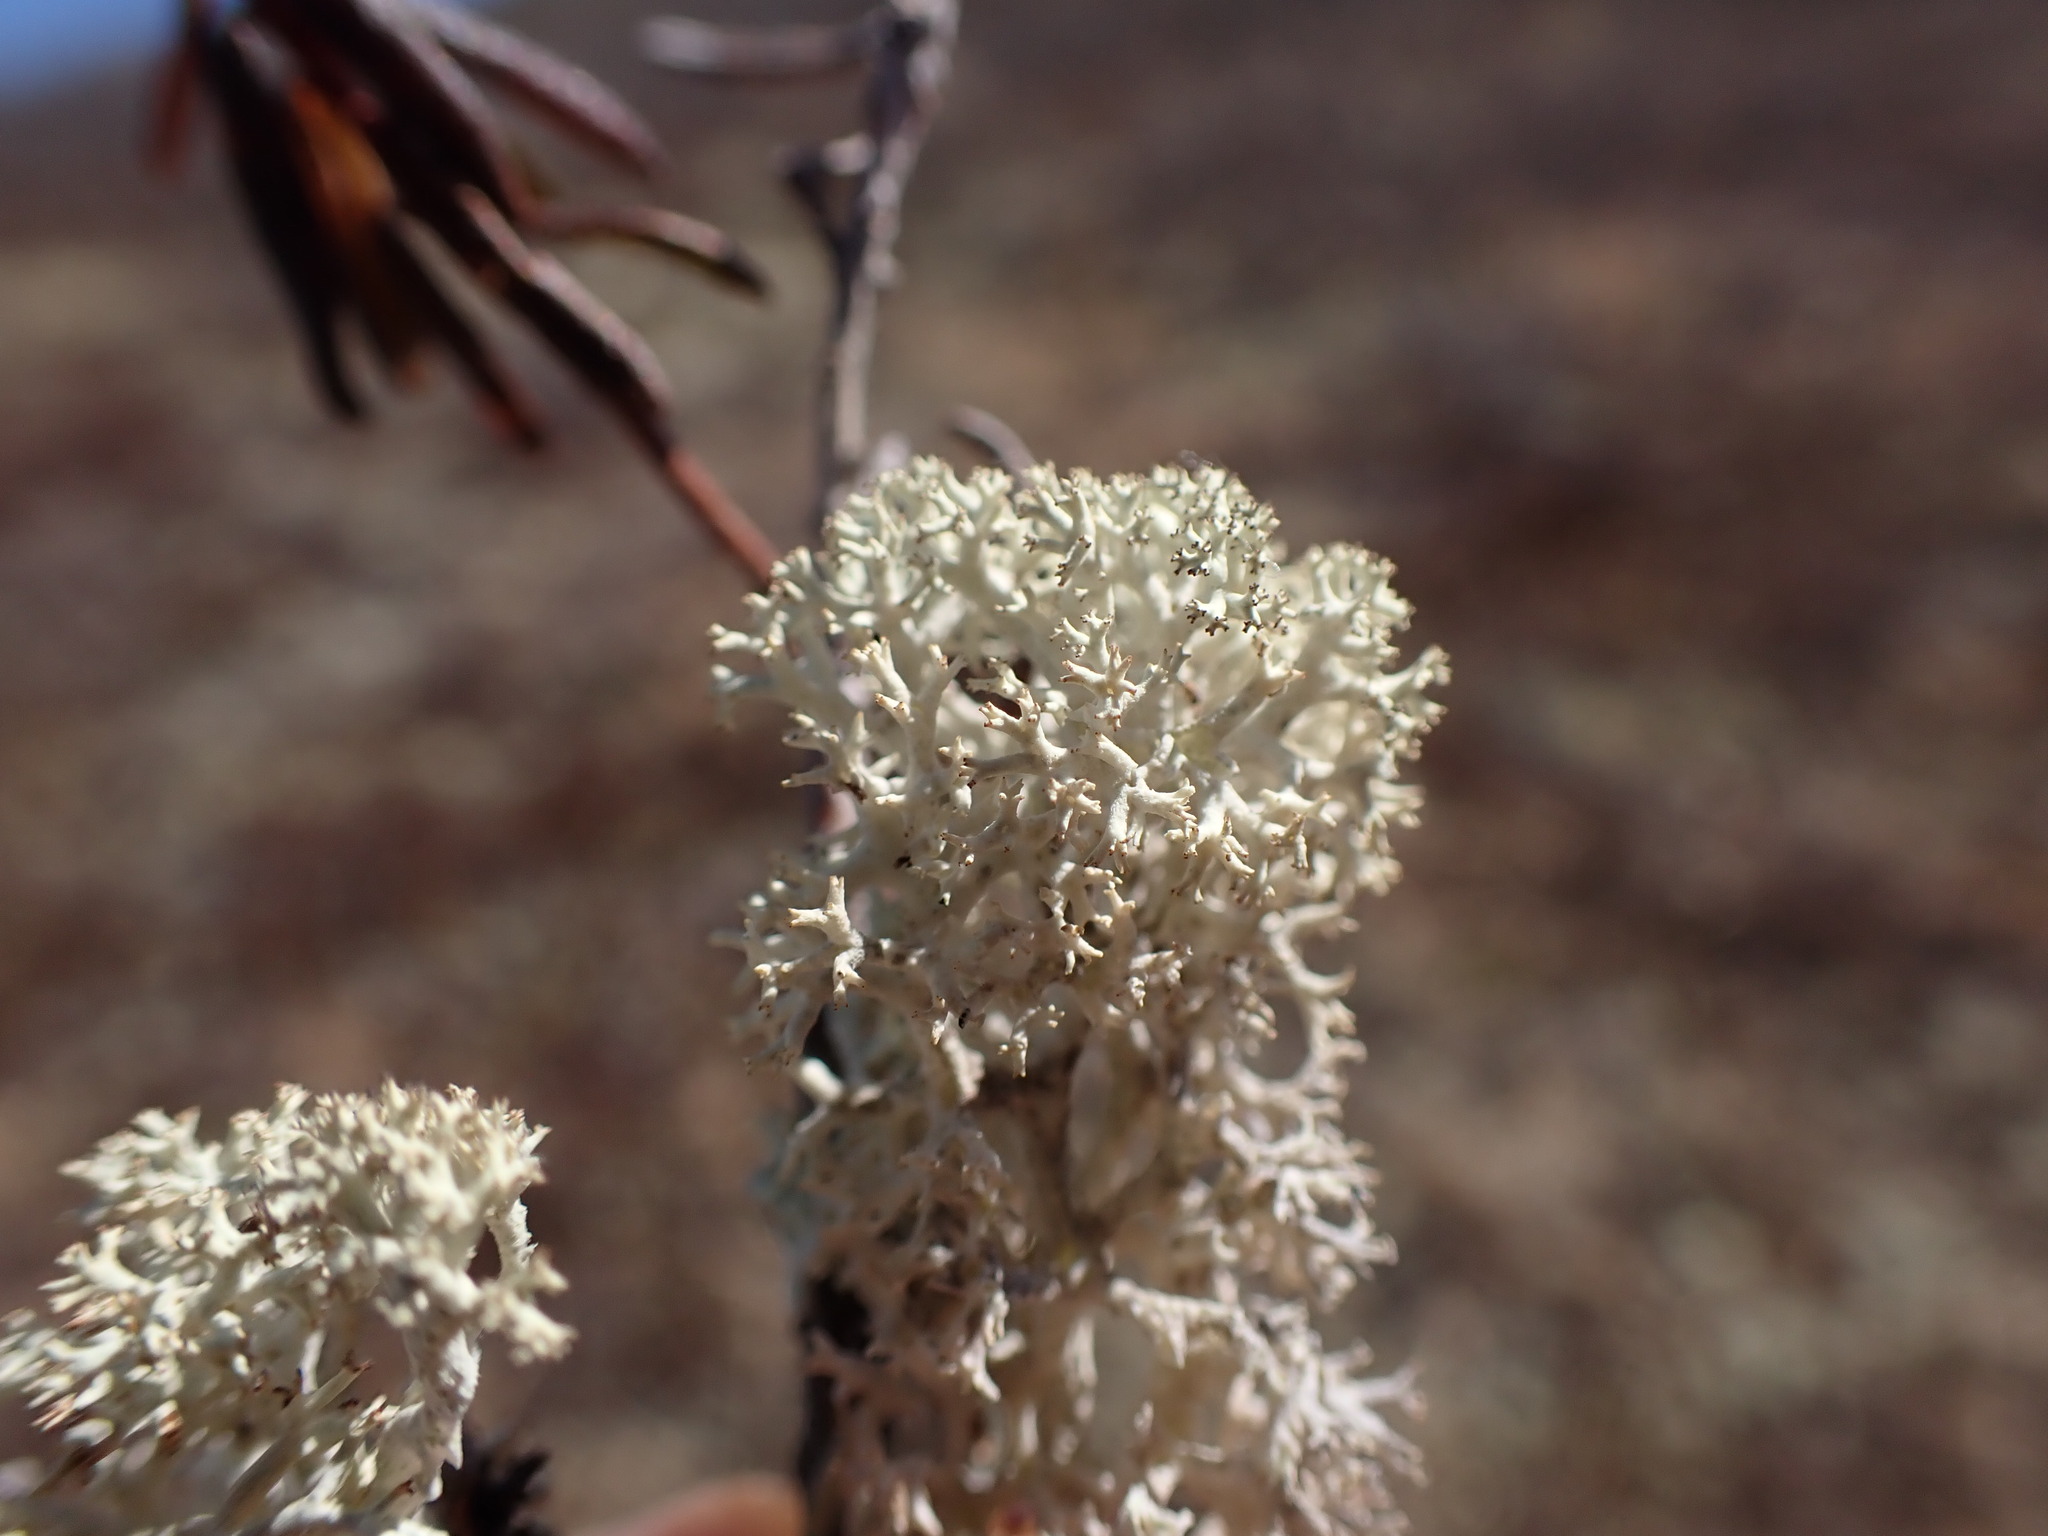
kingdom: Fungi
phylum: Ascomycota
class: Lecanoromycetes
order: Lecanorales
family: Cladoniaceae
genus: Cladonia
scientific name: Cladonia stellaris
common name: Star-tipped reindeer lichen
